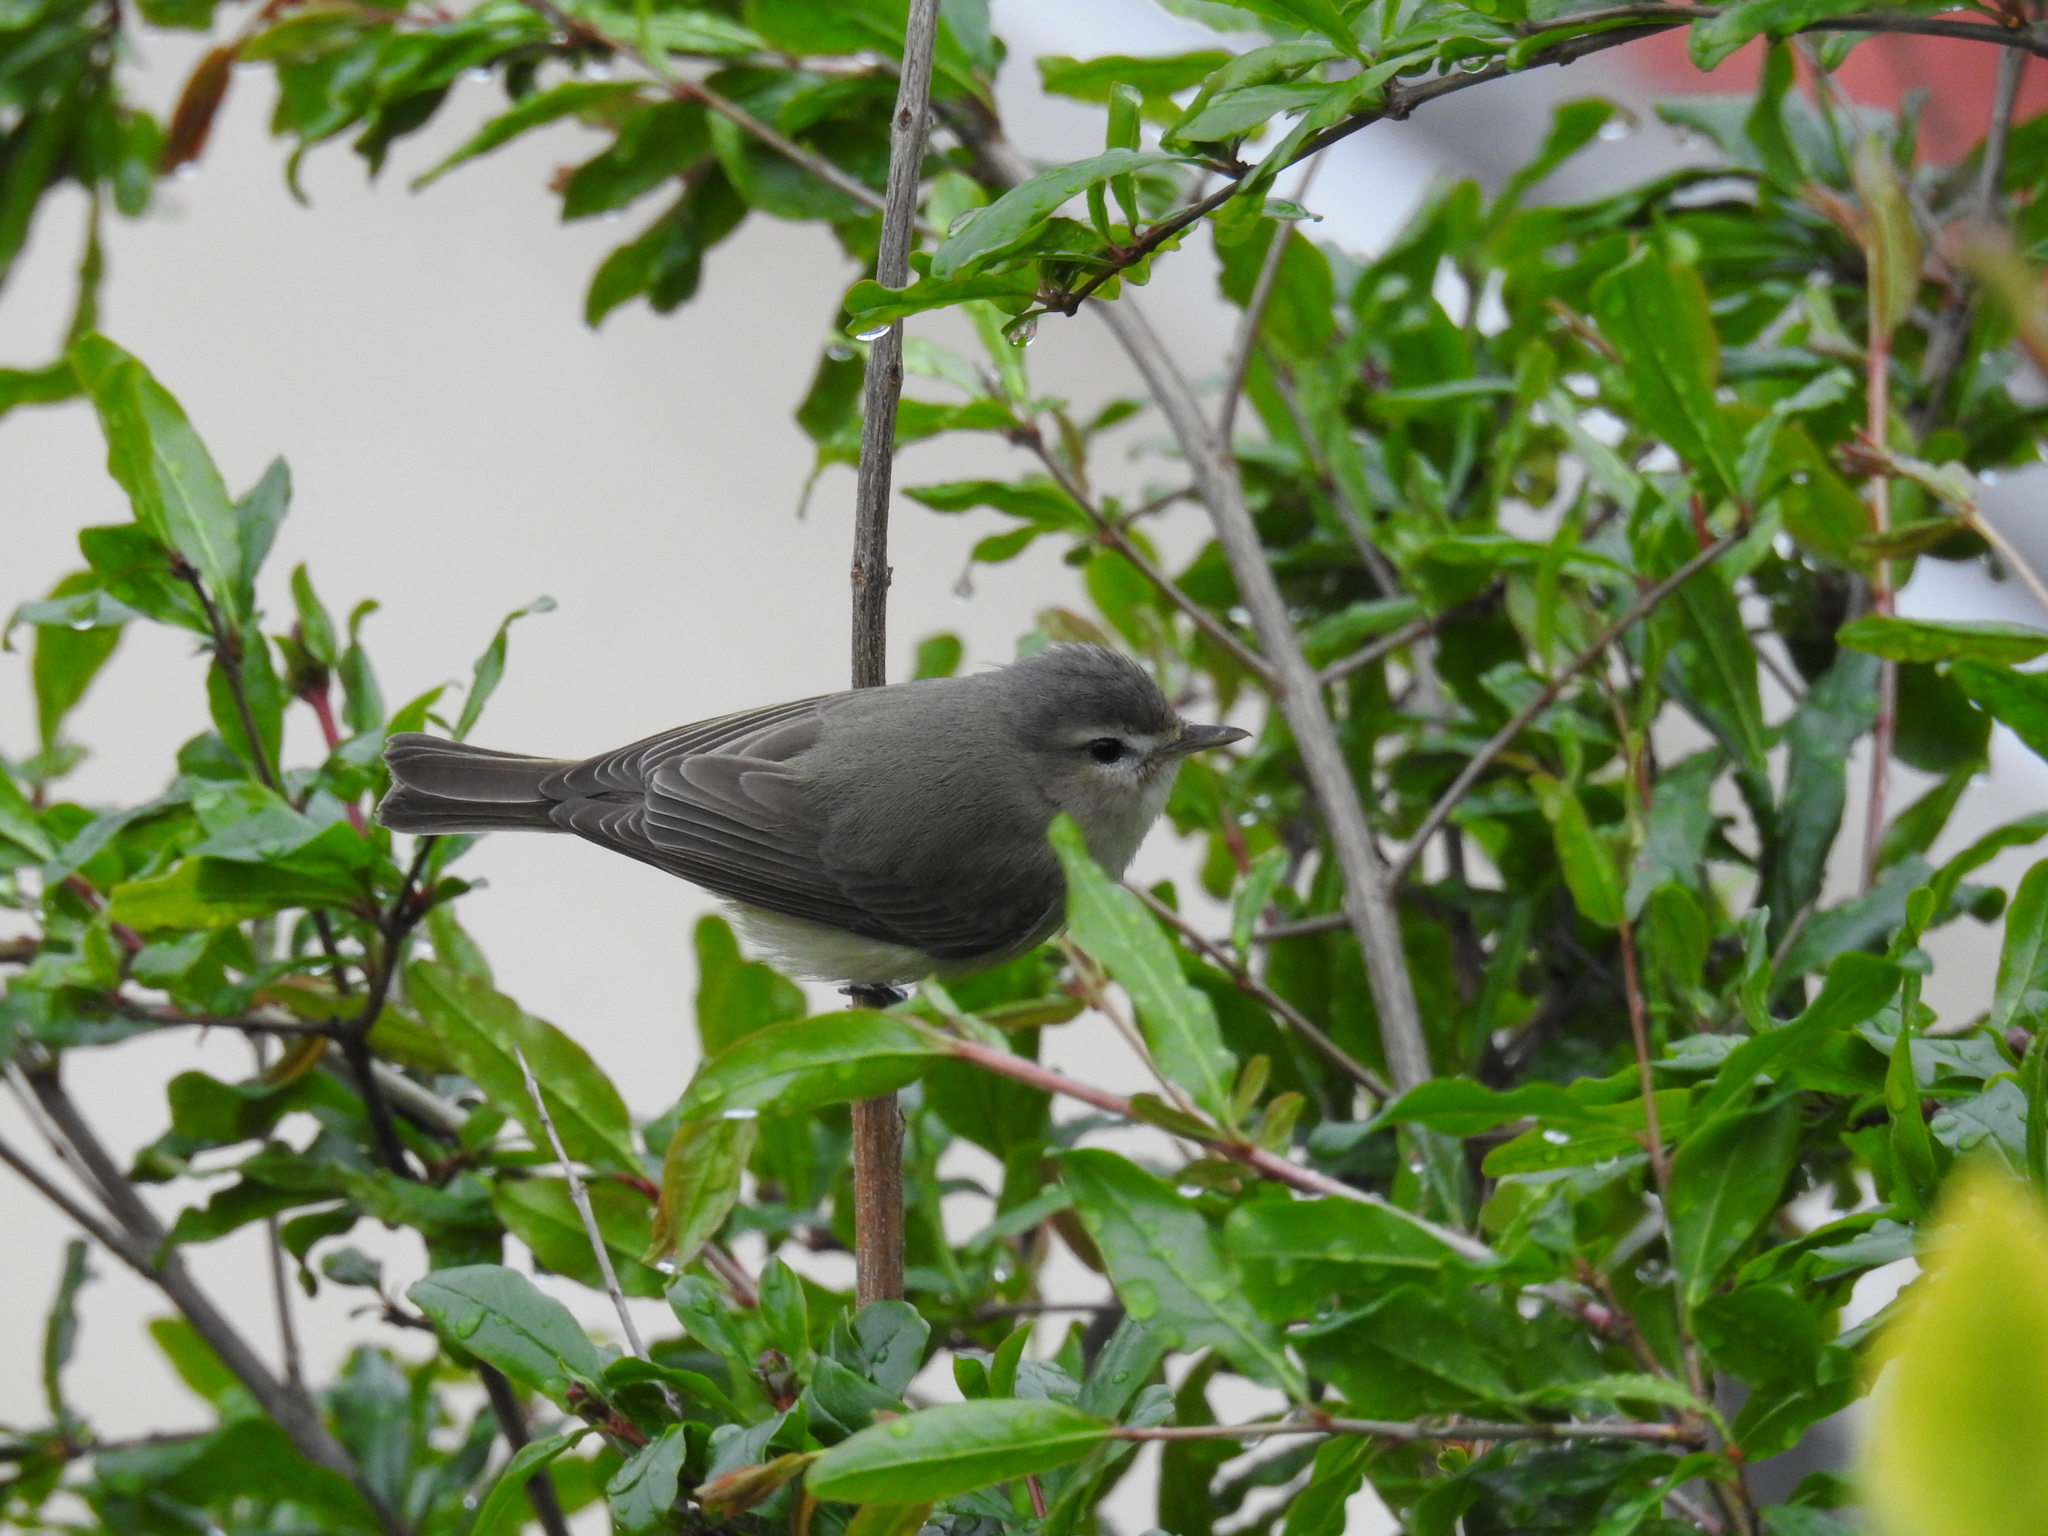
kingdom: Animalia
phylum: Chordata
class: Aves
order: Passeriformes
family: Vireonidae
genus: Vireo
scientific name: Vireo gilvus
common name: Warbling vireo
